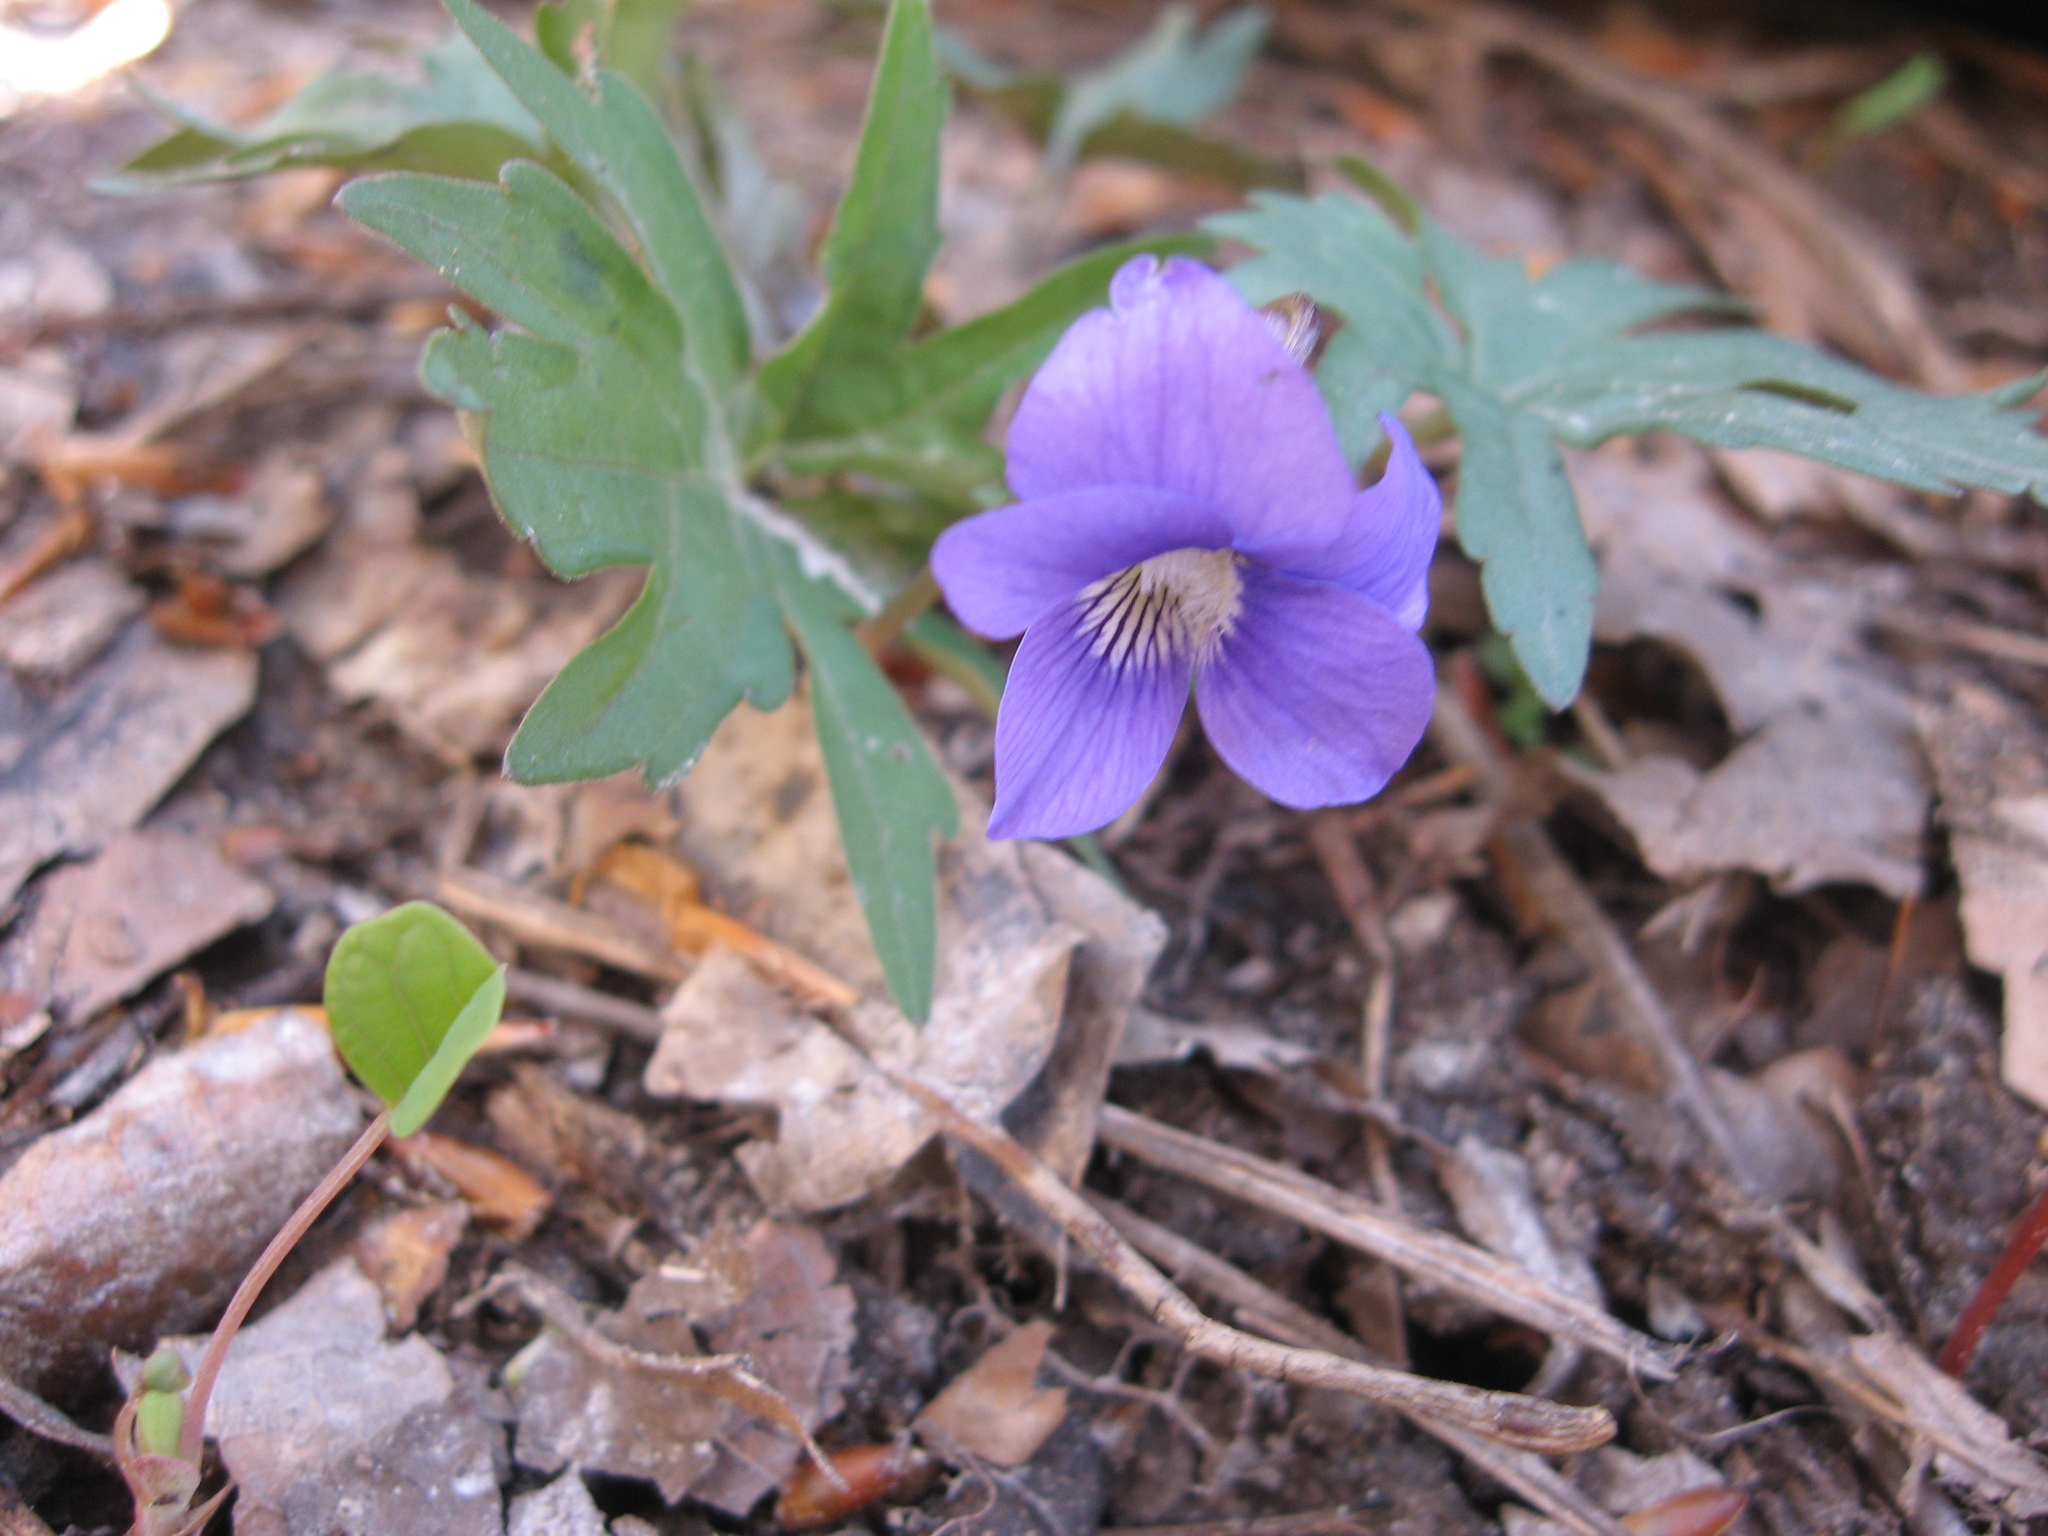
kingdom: Plantae
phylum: Tracheophyta
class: Magnoliopsida
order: Malpighiales
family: Violaceae
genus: Viola
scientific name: Viola subsinuata
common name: Wood violet
